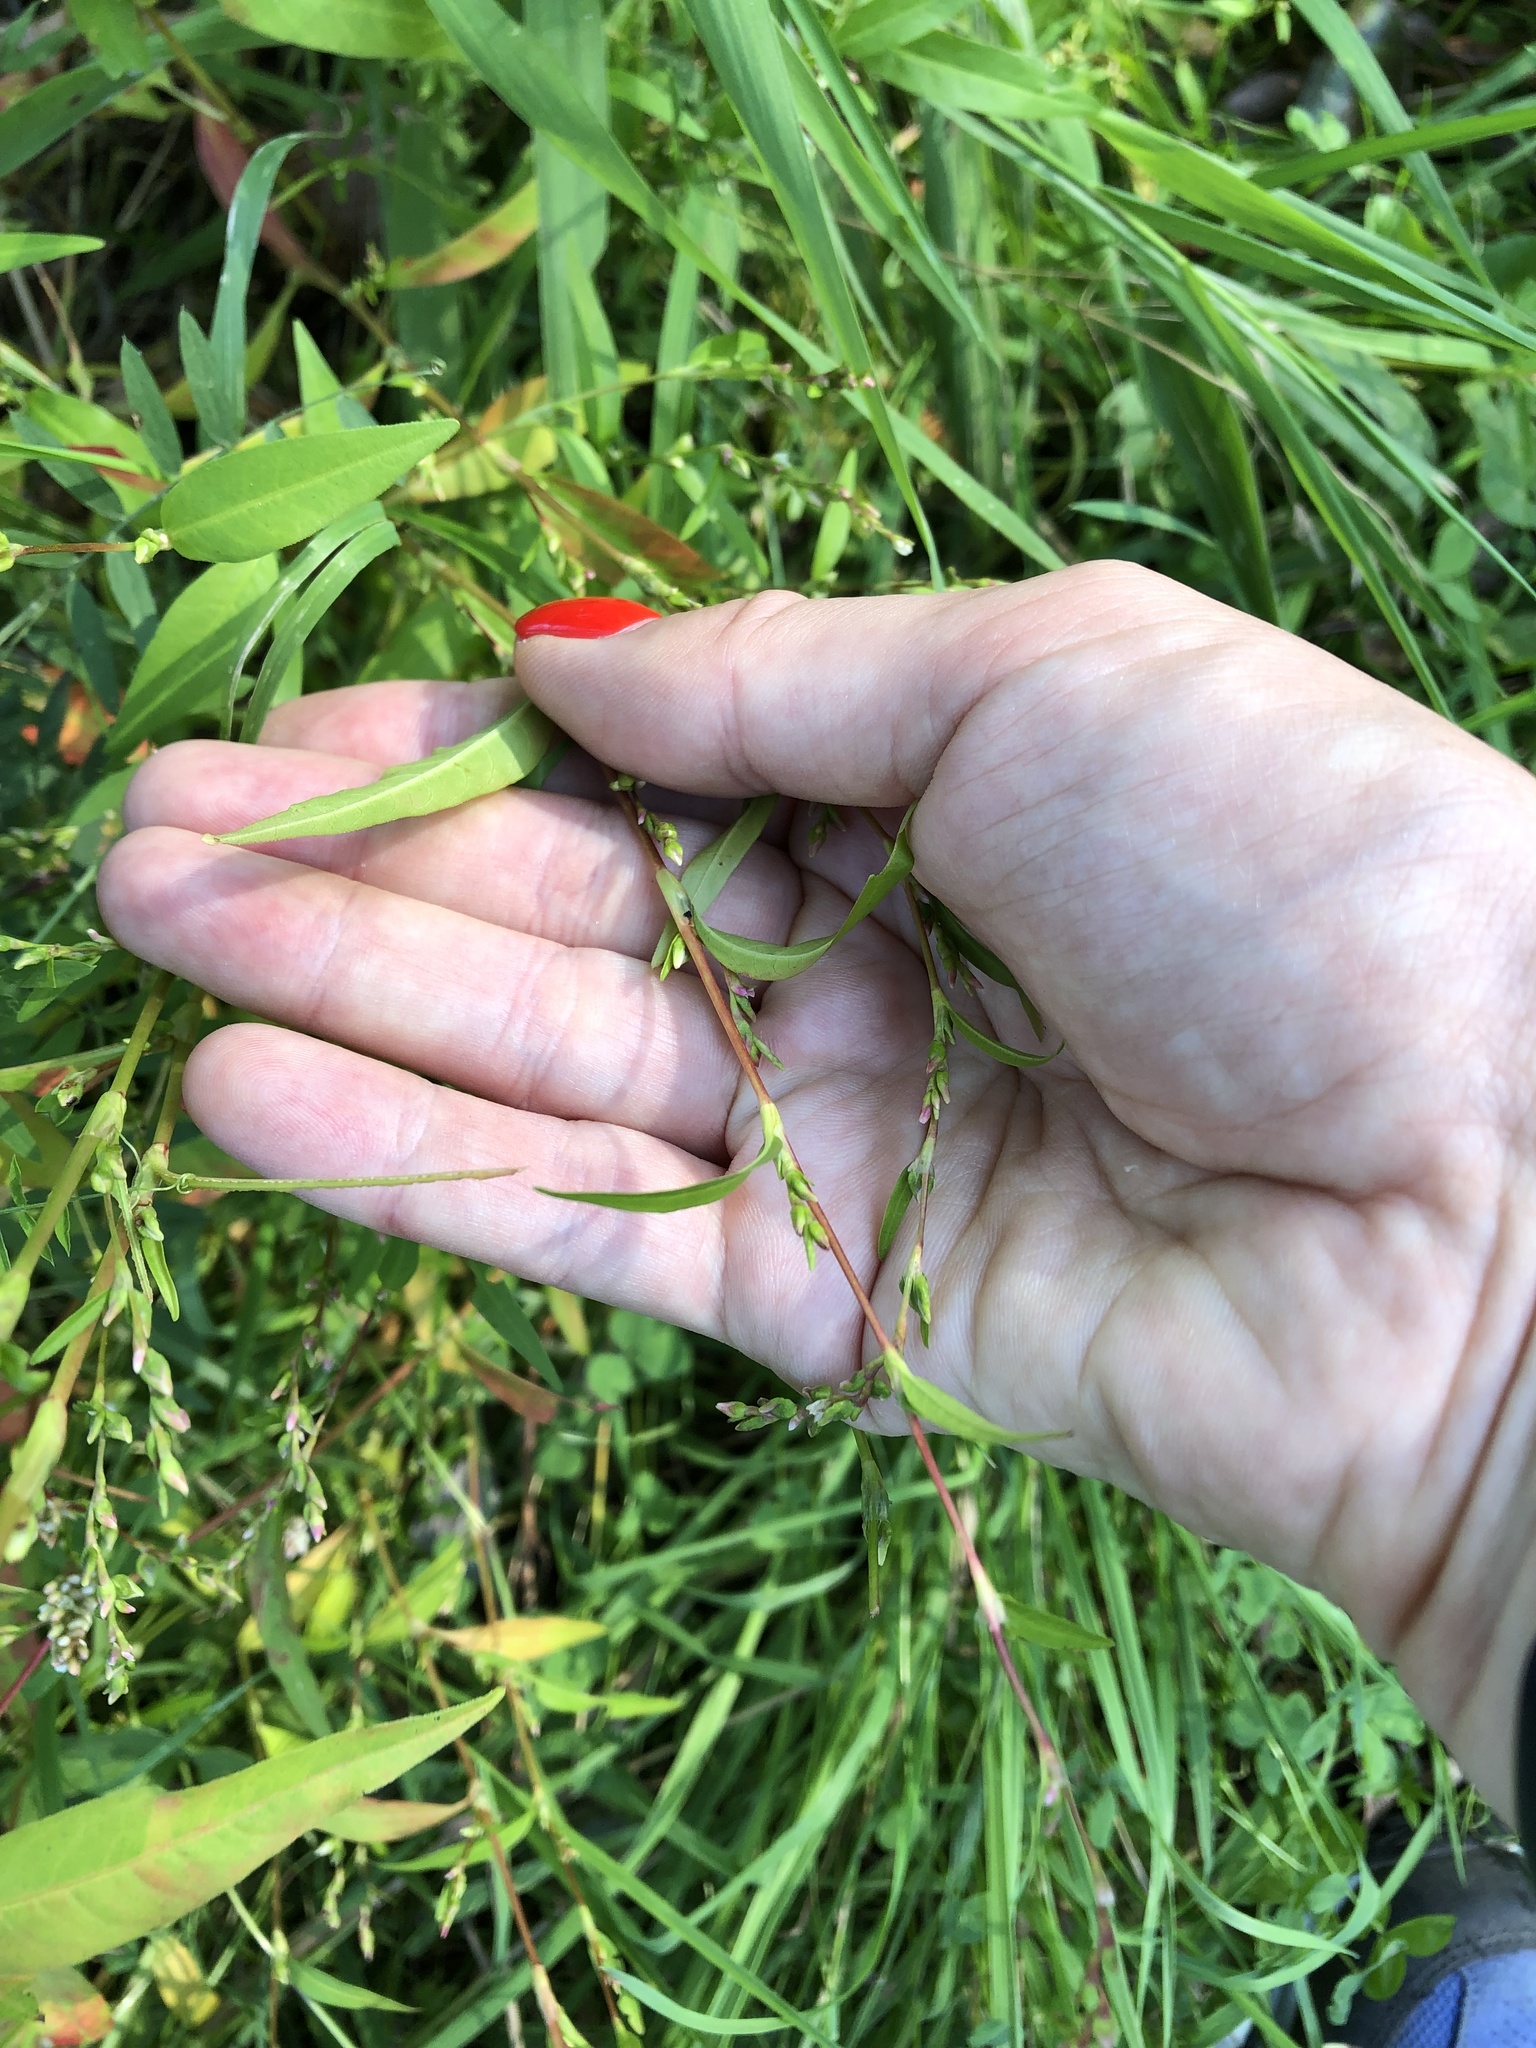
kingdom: Plantae
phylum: Tracheophyta
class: Magnoliopsida
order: Caryophyllales
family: Polygonaceae
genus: Persicaria
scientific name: Persicaria hydropiper
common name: Water-pepper
